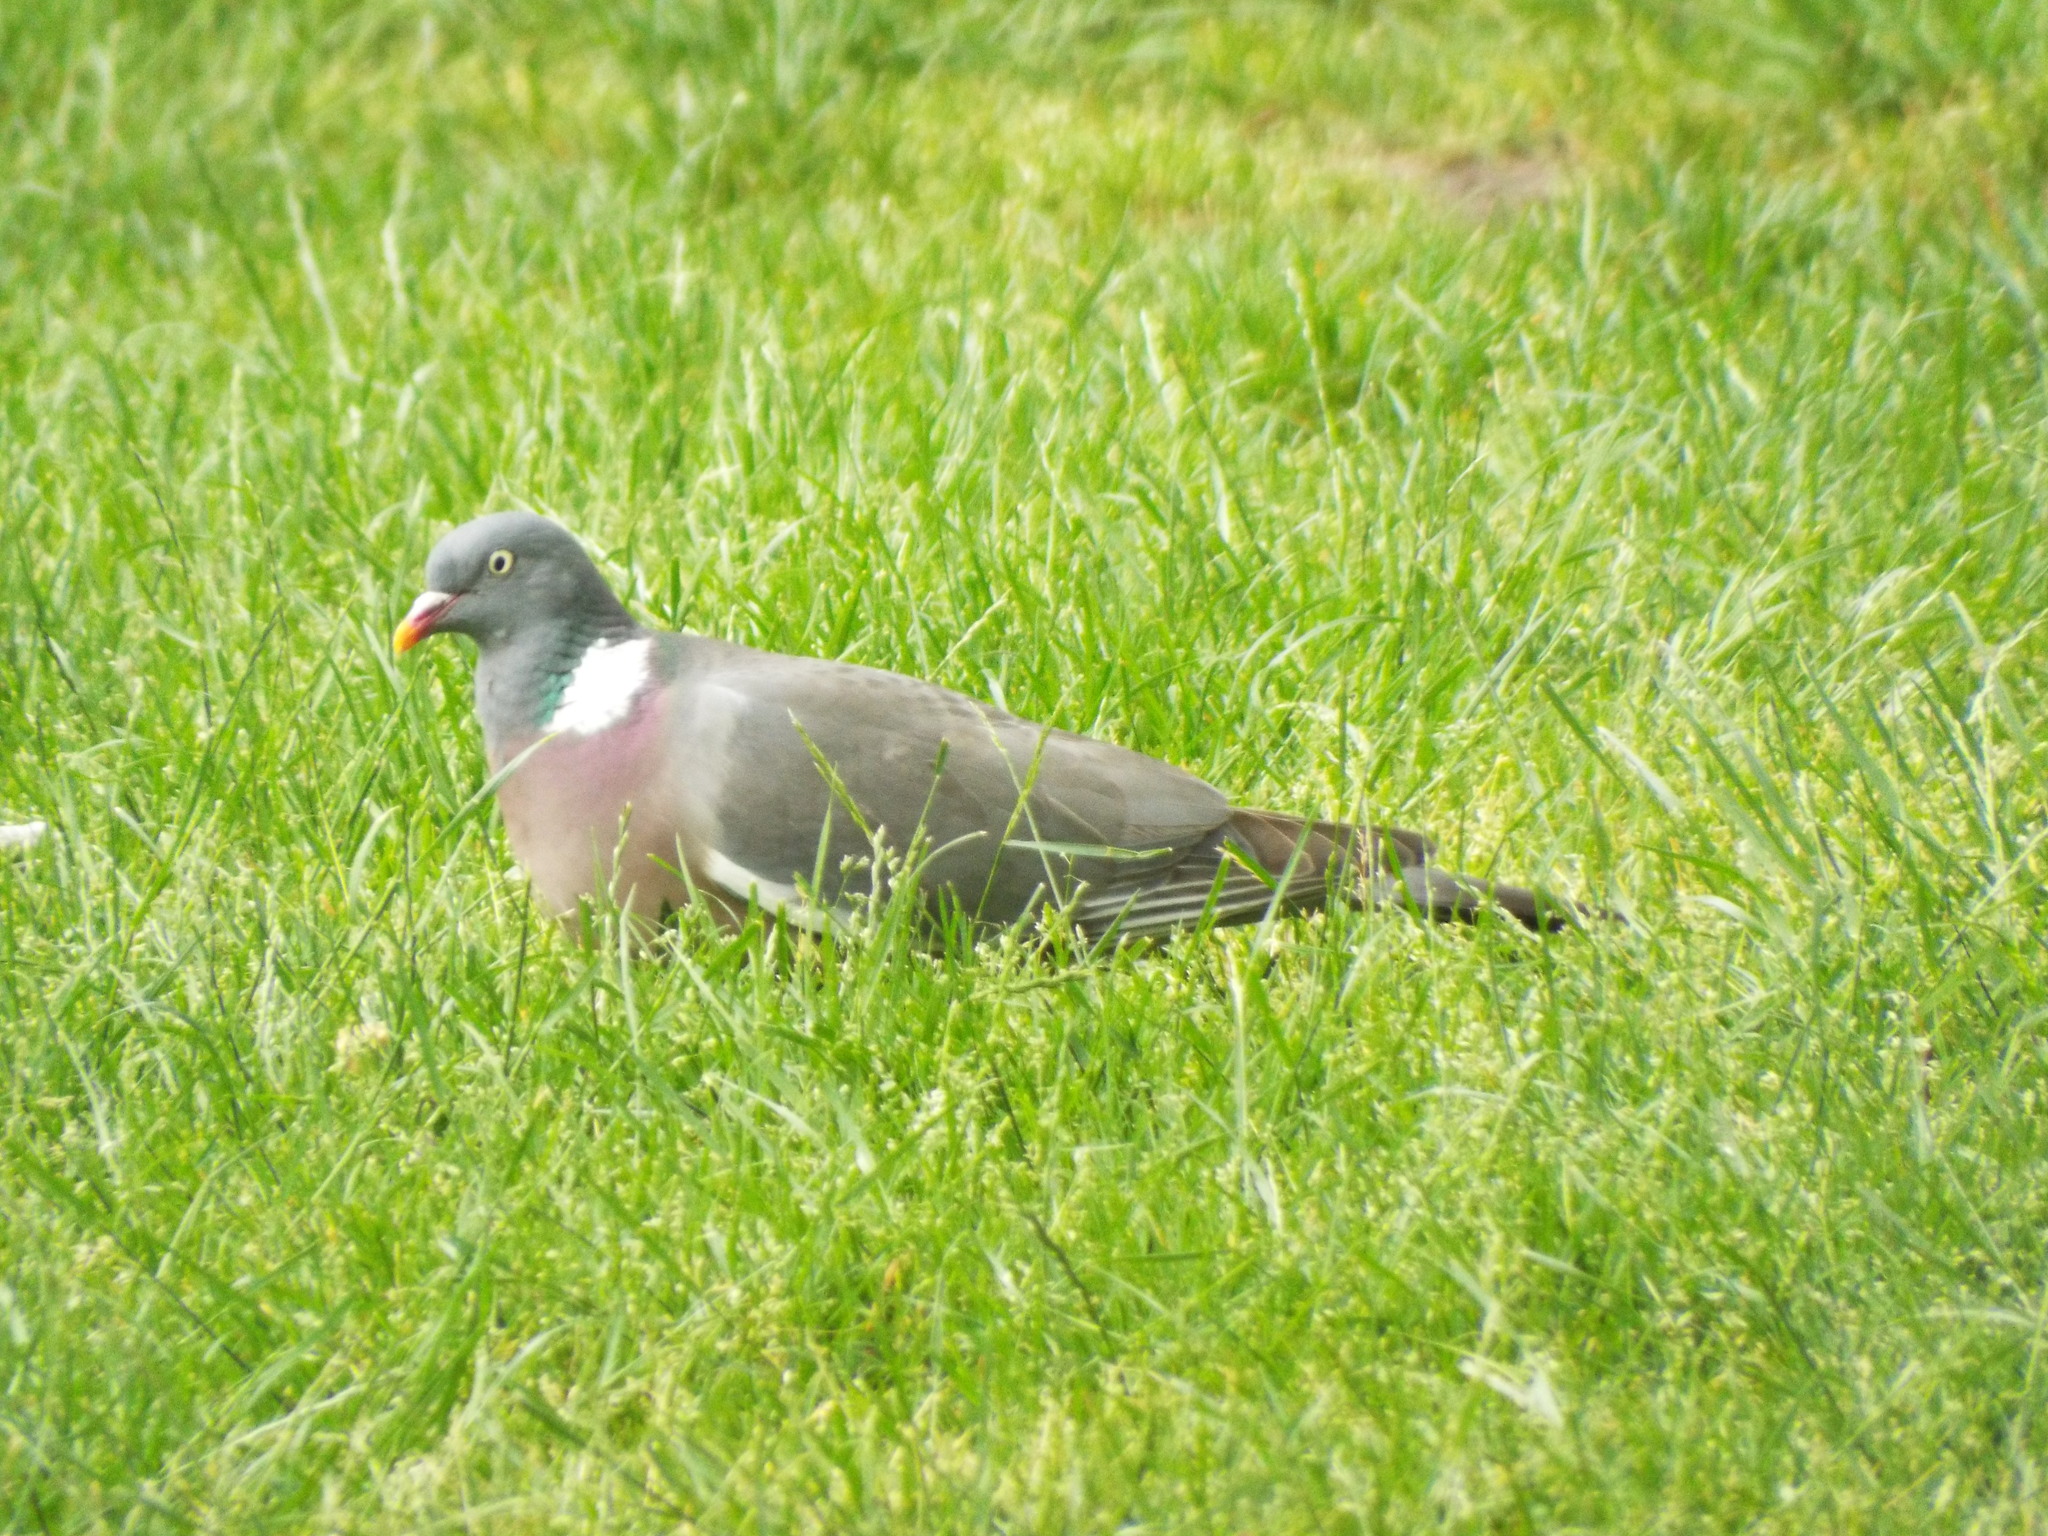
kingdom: Animalia
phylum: Chordata
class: Aves
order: Columbiformes
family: Columbidae
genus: Columba
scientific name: Columba palumbus
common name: Common wood pigeon
